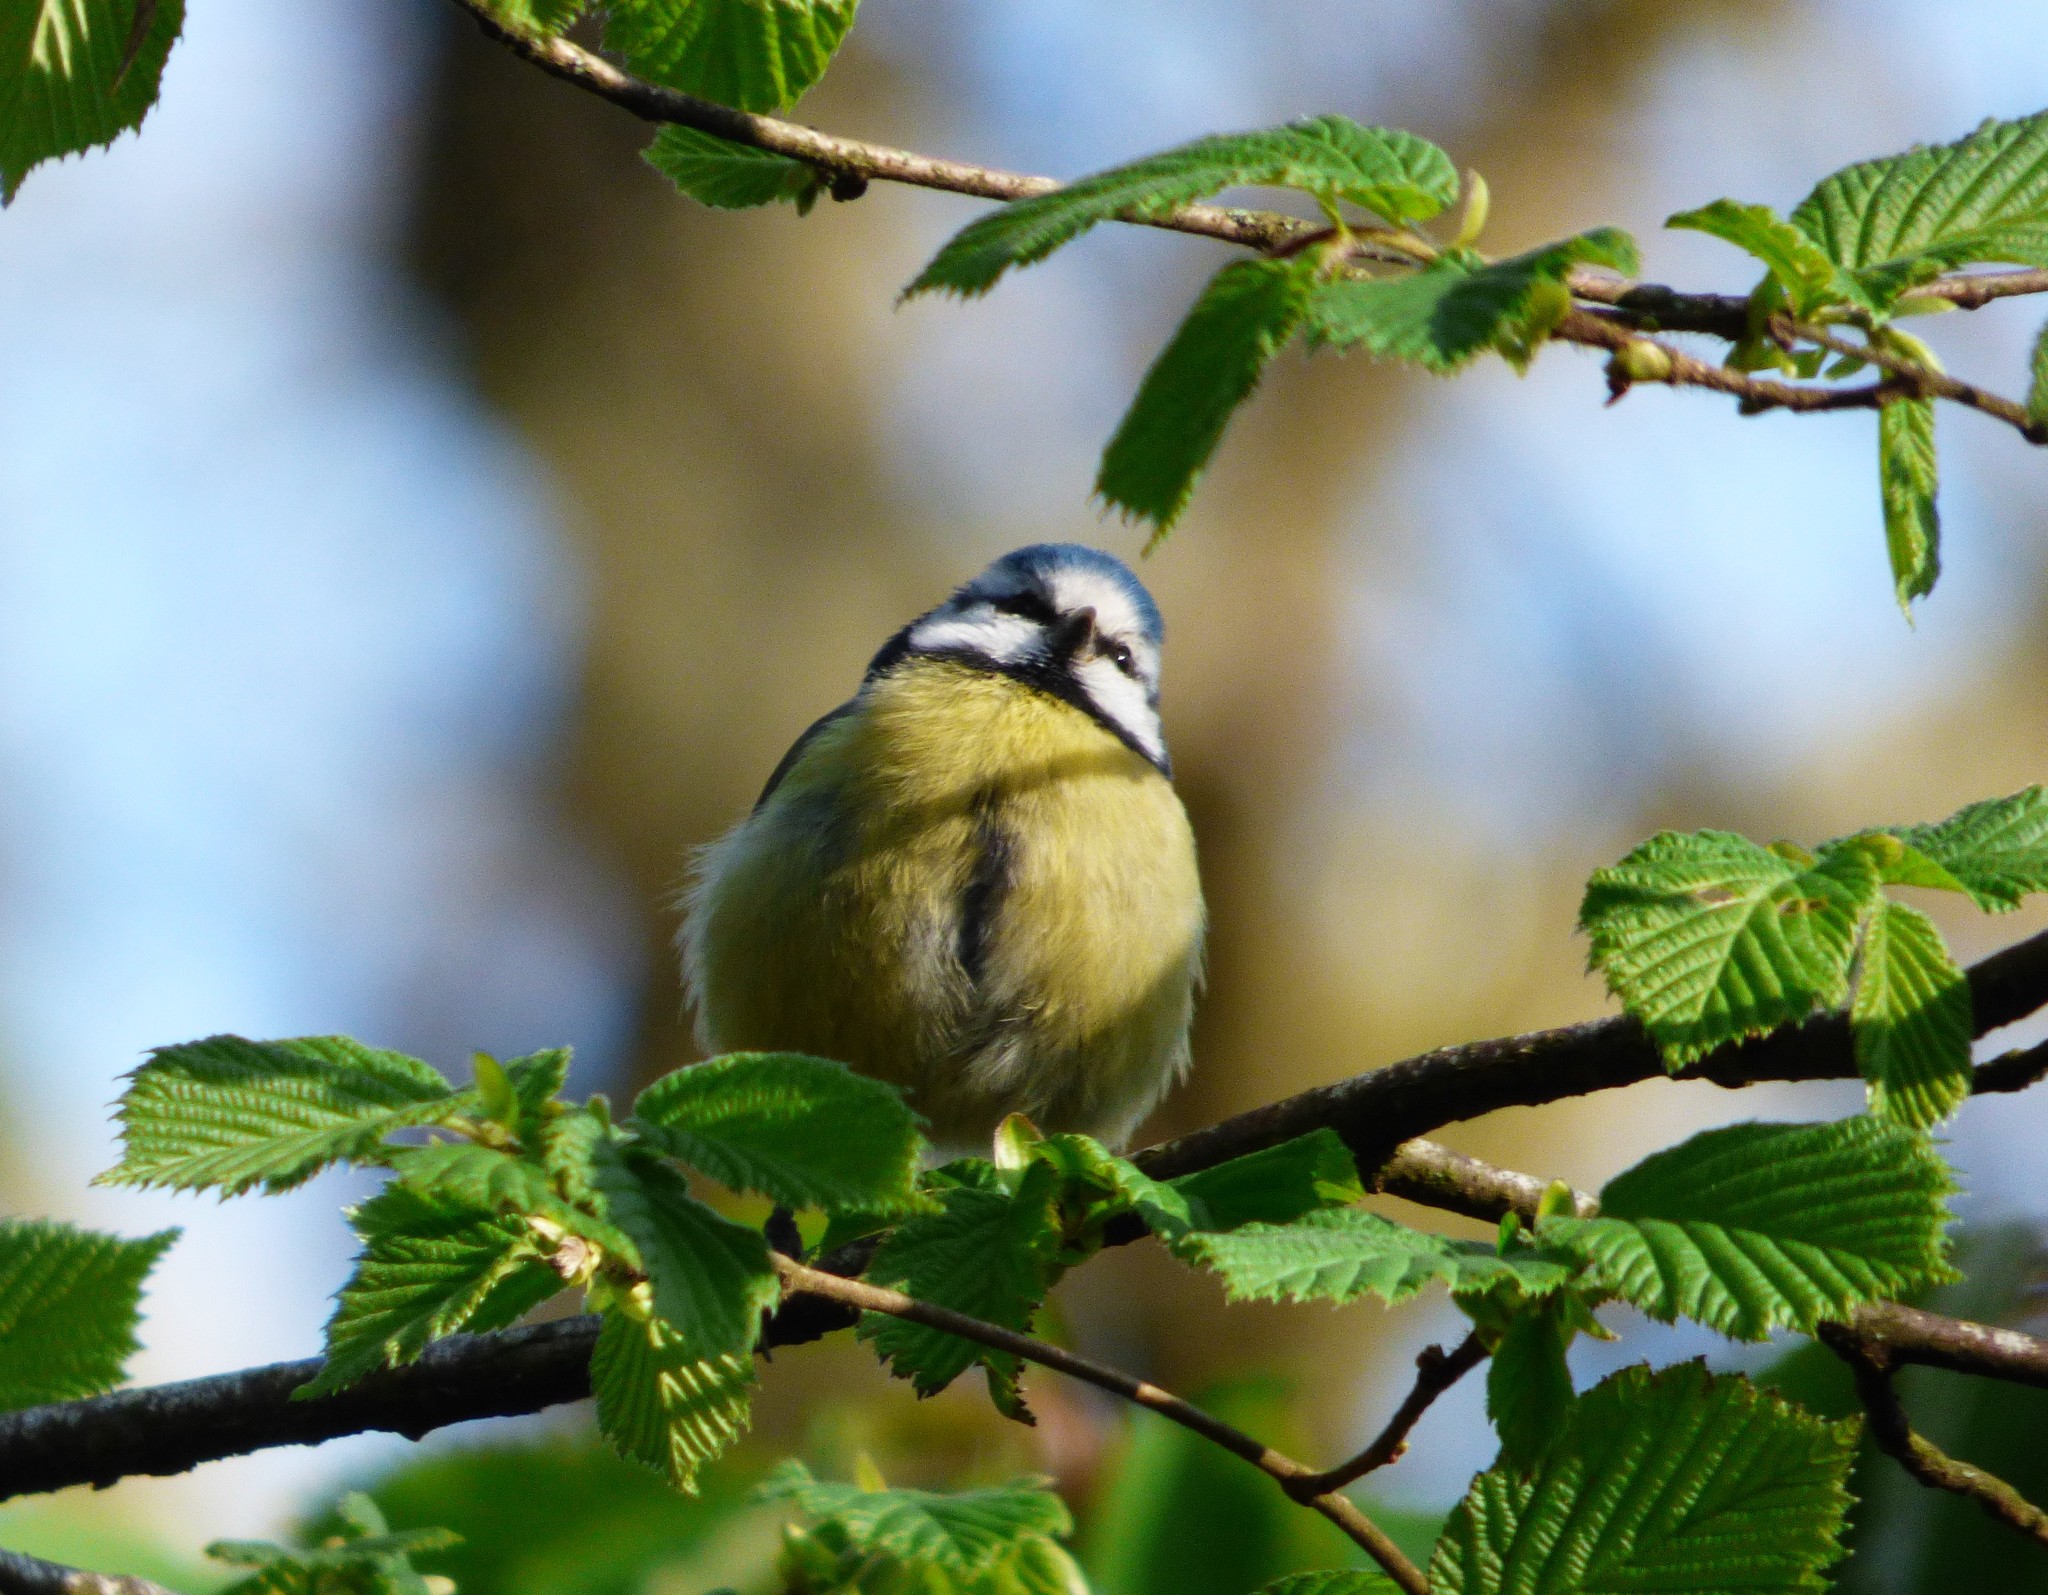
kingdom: Animalia
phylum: Chordata
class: Aves
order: Passeriformes
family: Paridae
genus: Cyanistes
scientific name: Cyanistes caeruleus
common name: Eurasian blue tit
